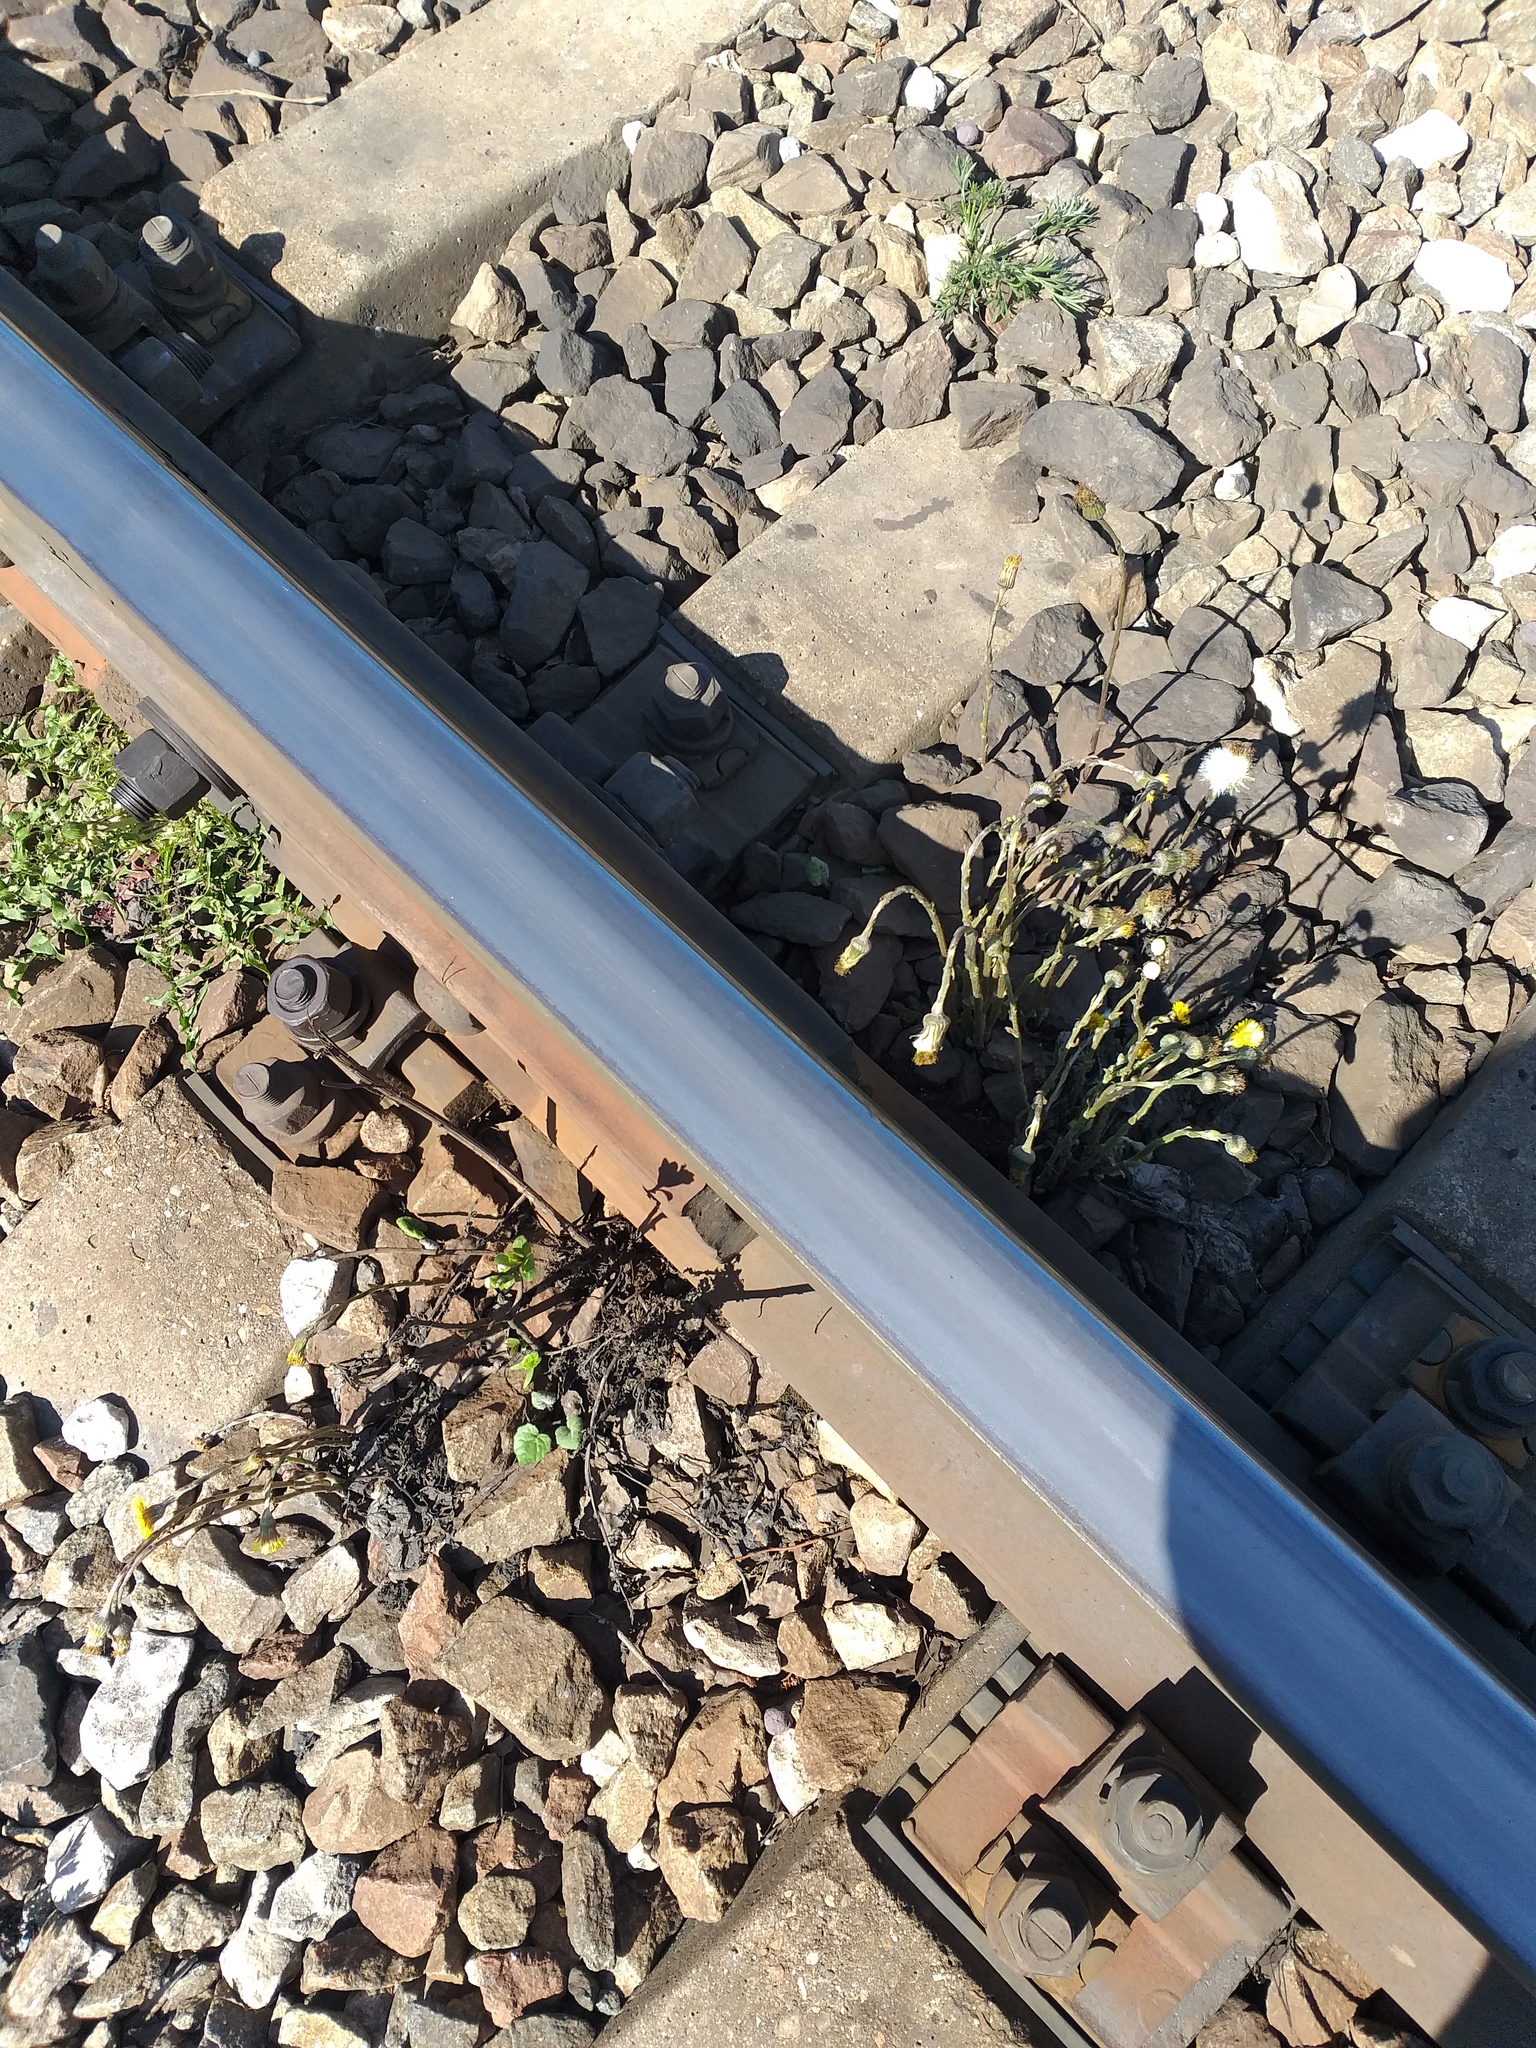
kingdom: Plantae
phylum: Tracheophyta
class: Magnoliopsida
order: Asterales
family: Asteraceae
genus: Tussilago
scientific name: Tussilago farfara
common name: Coltsfoot
